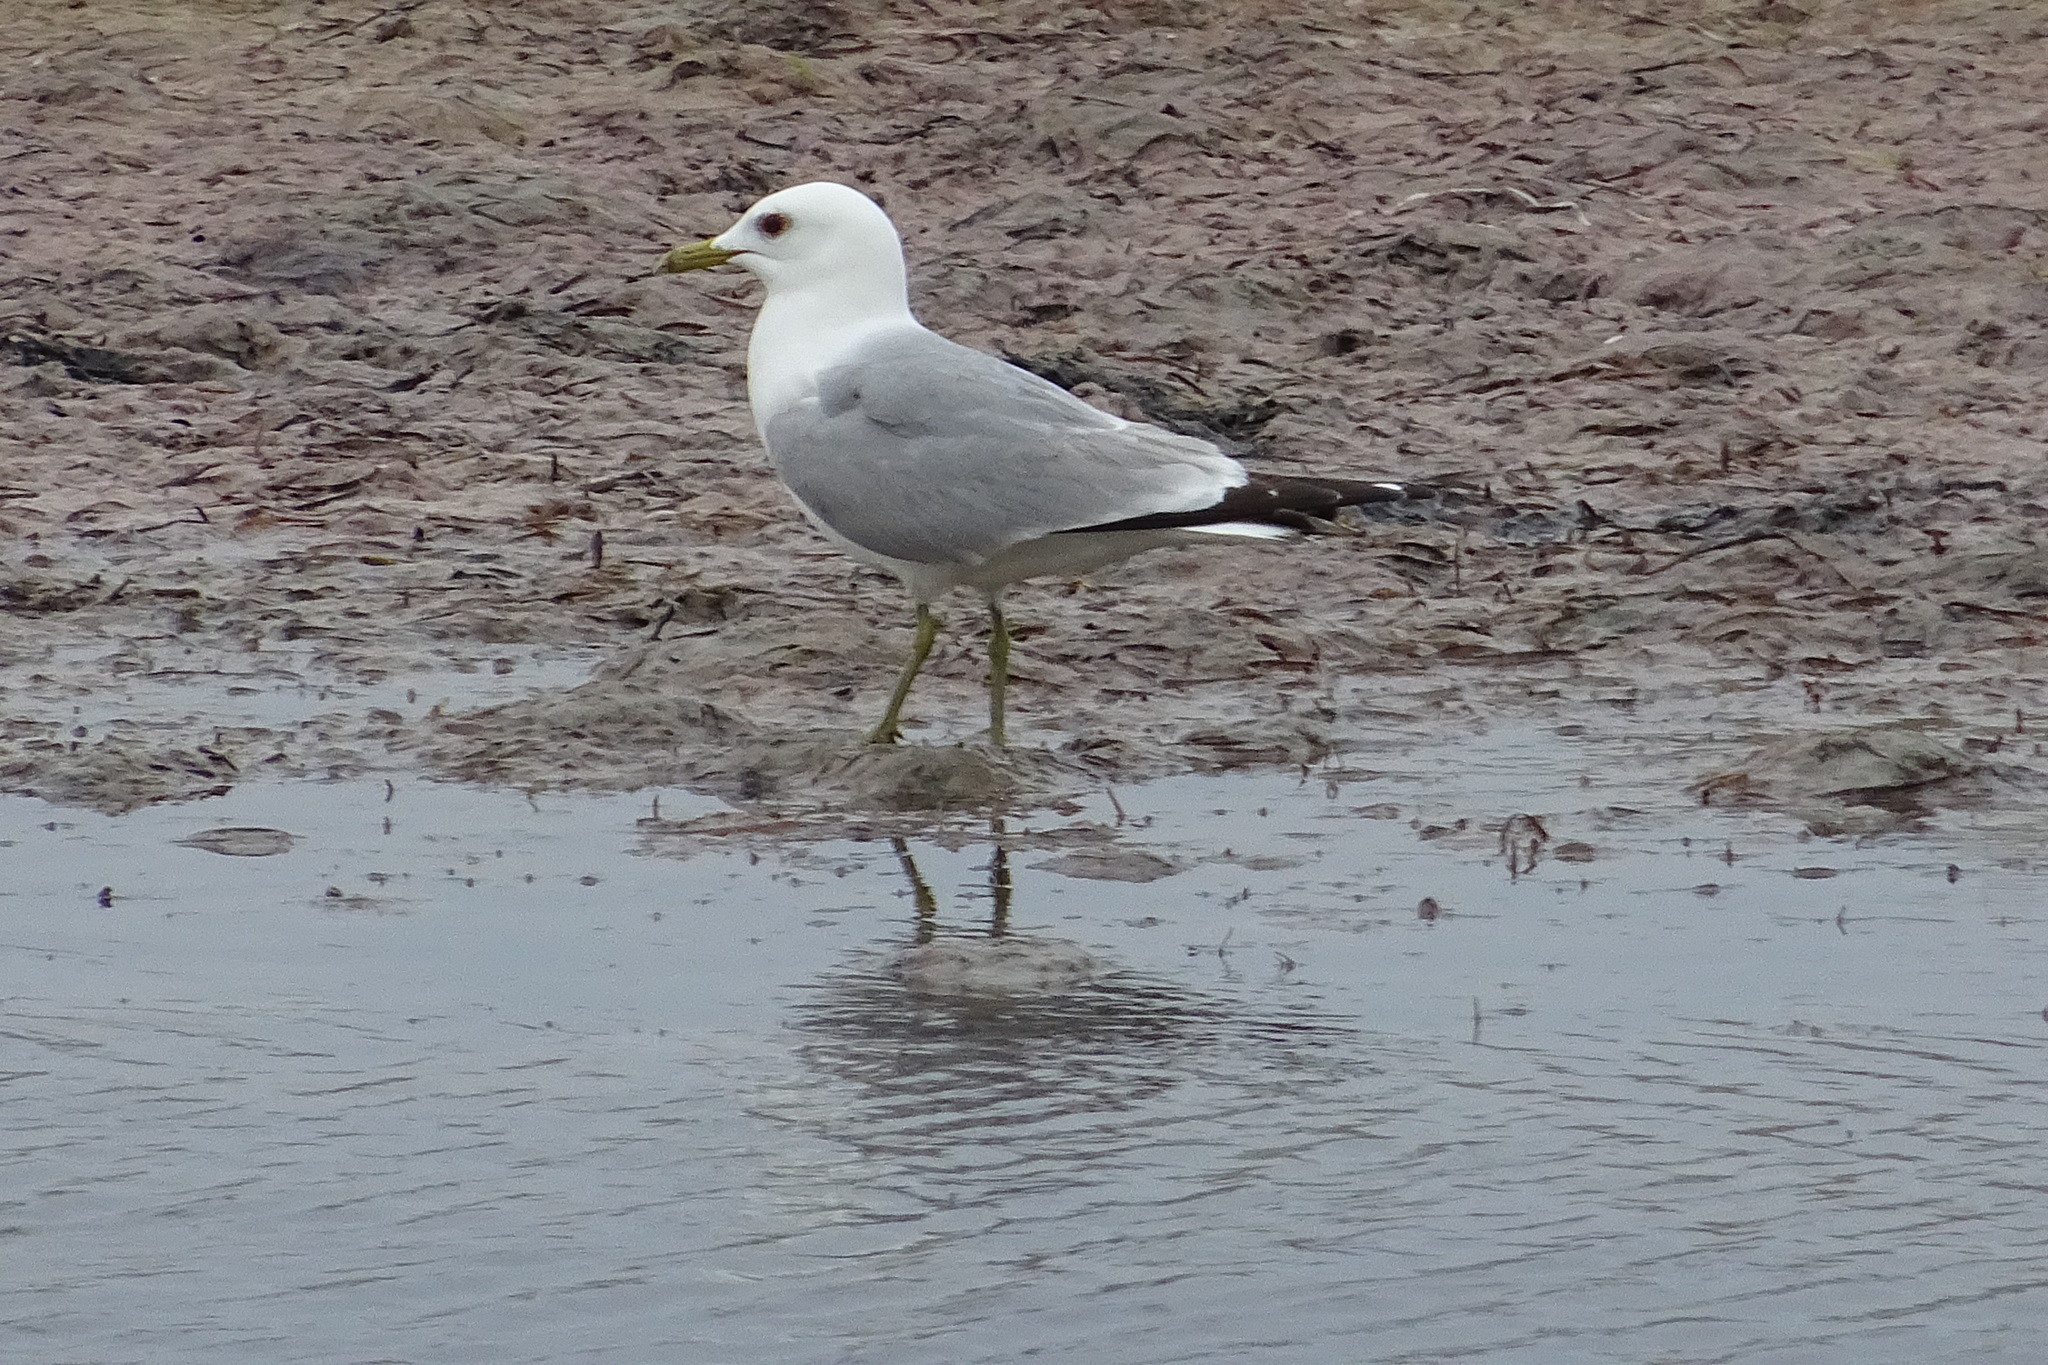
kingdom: Animalia
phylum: Chordata
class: Aves
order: Charadriiformes
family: Laridae
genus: Larus
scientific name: Larus canus
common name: Mew gull
